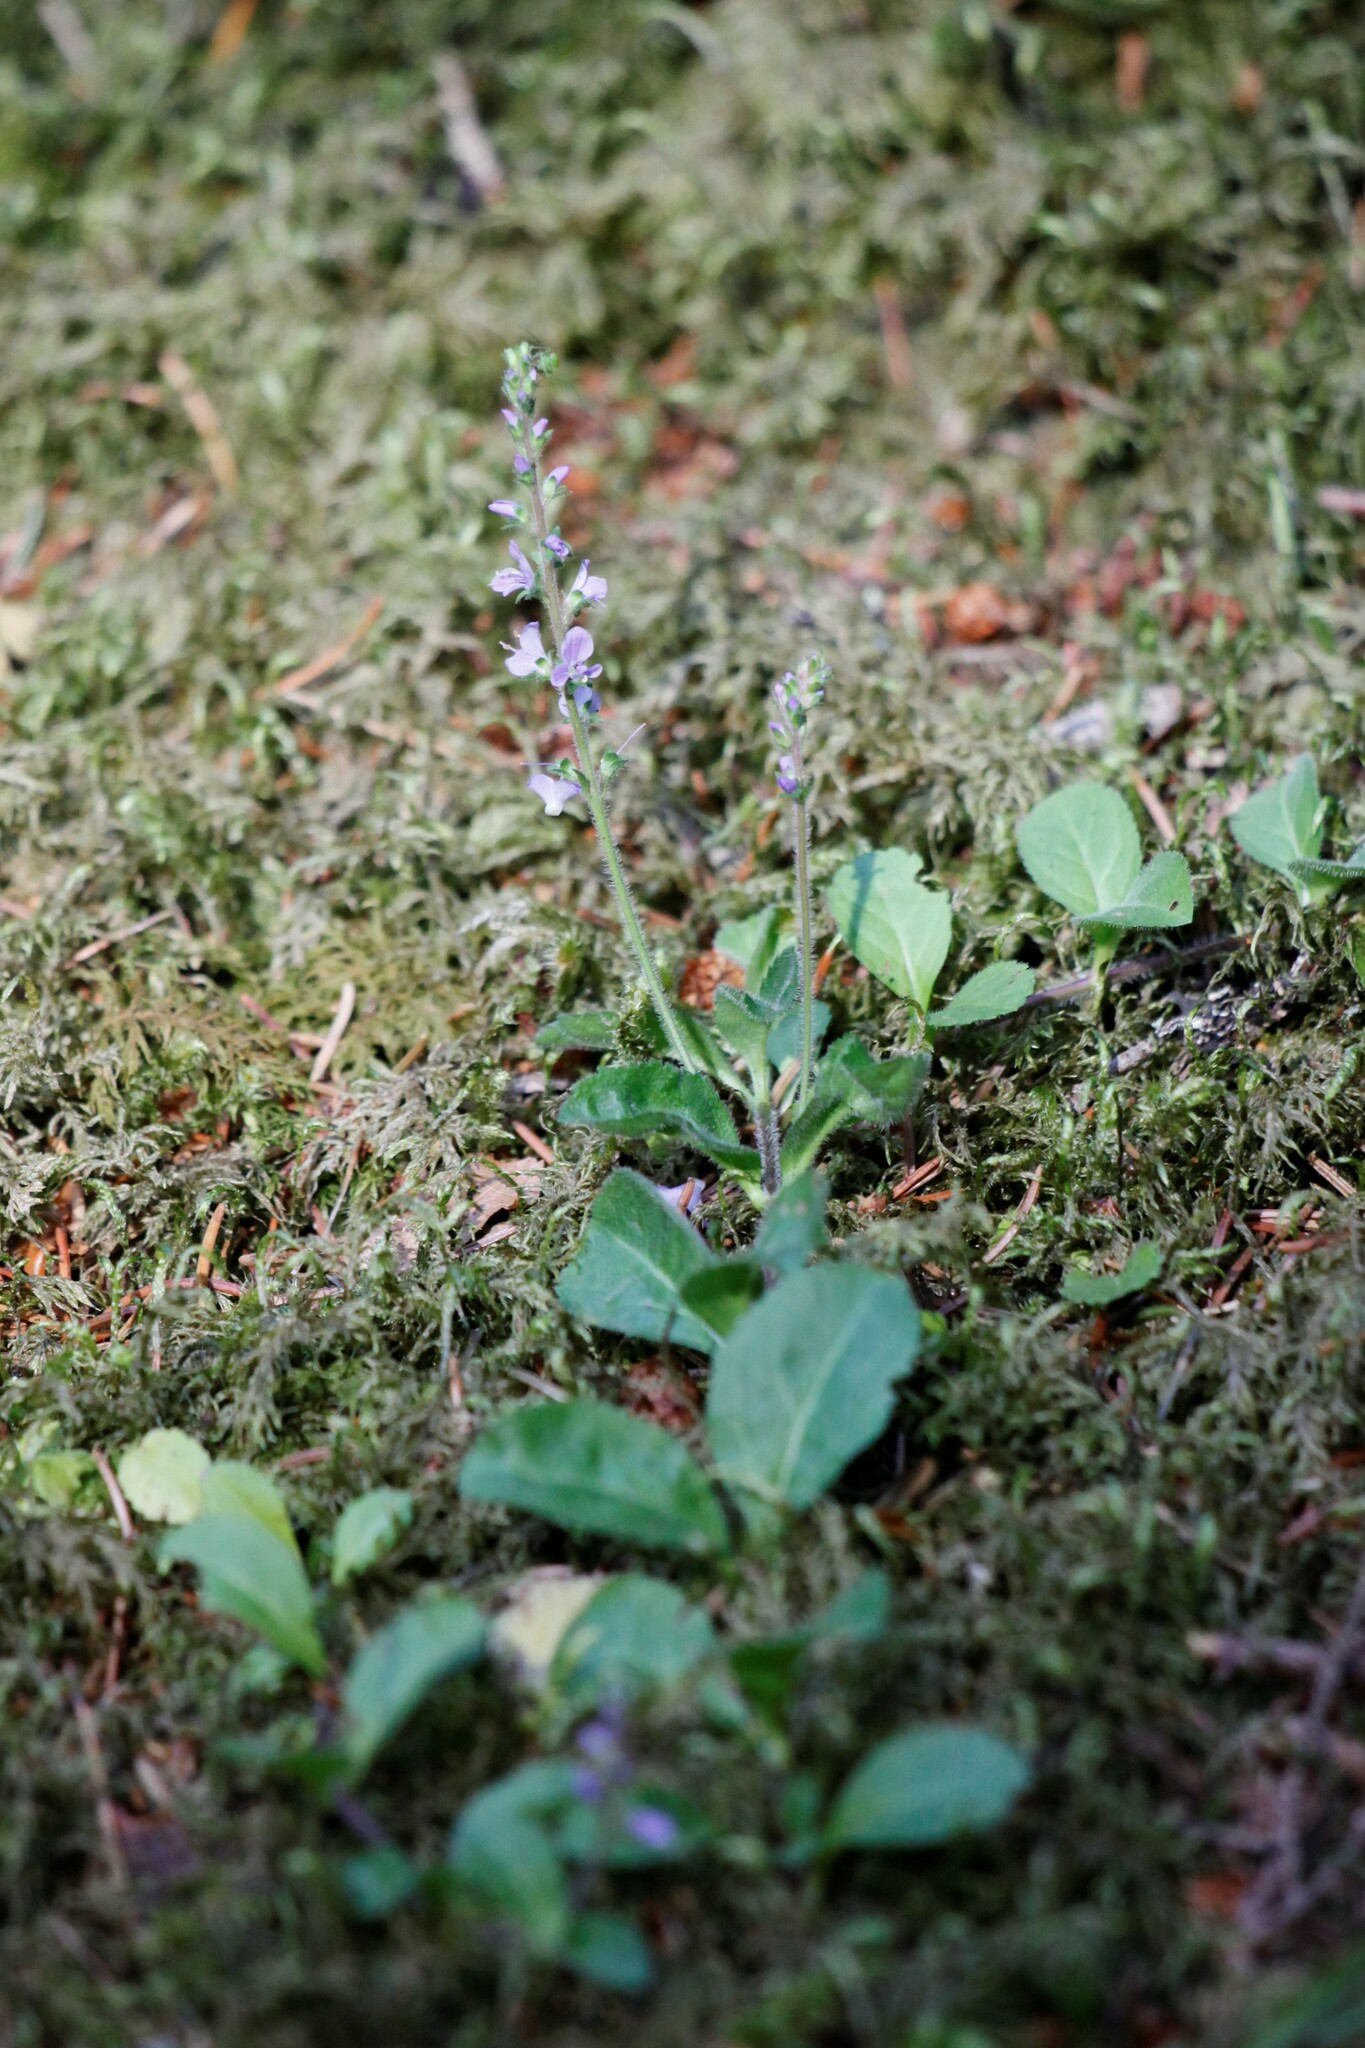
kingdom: Plantae
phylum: Tracheophyta
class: Magnoliopsida
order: Lamiales
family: Plantaginaceae
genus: Veronica
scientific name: Veronica officinalis
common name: Common speedwell
